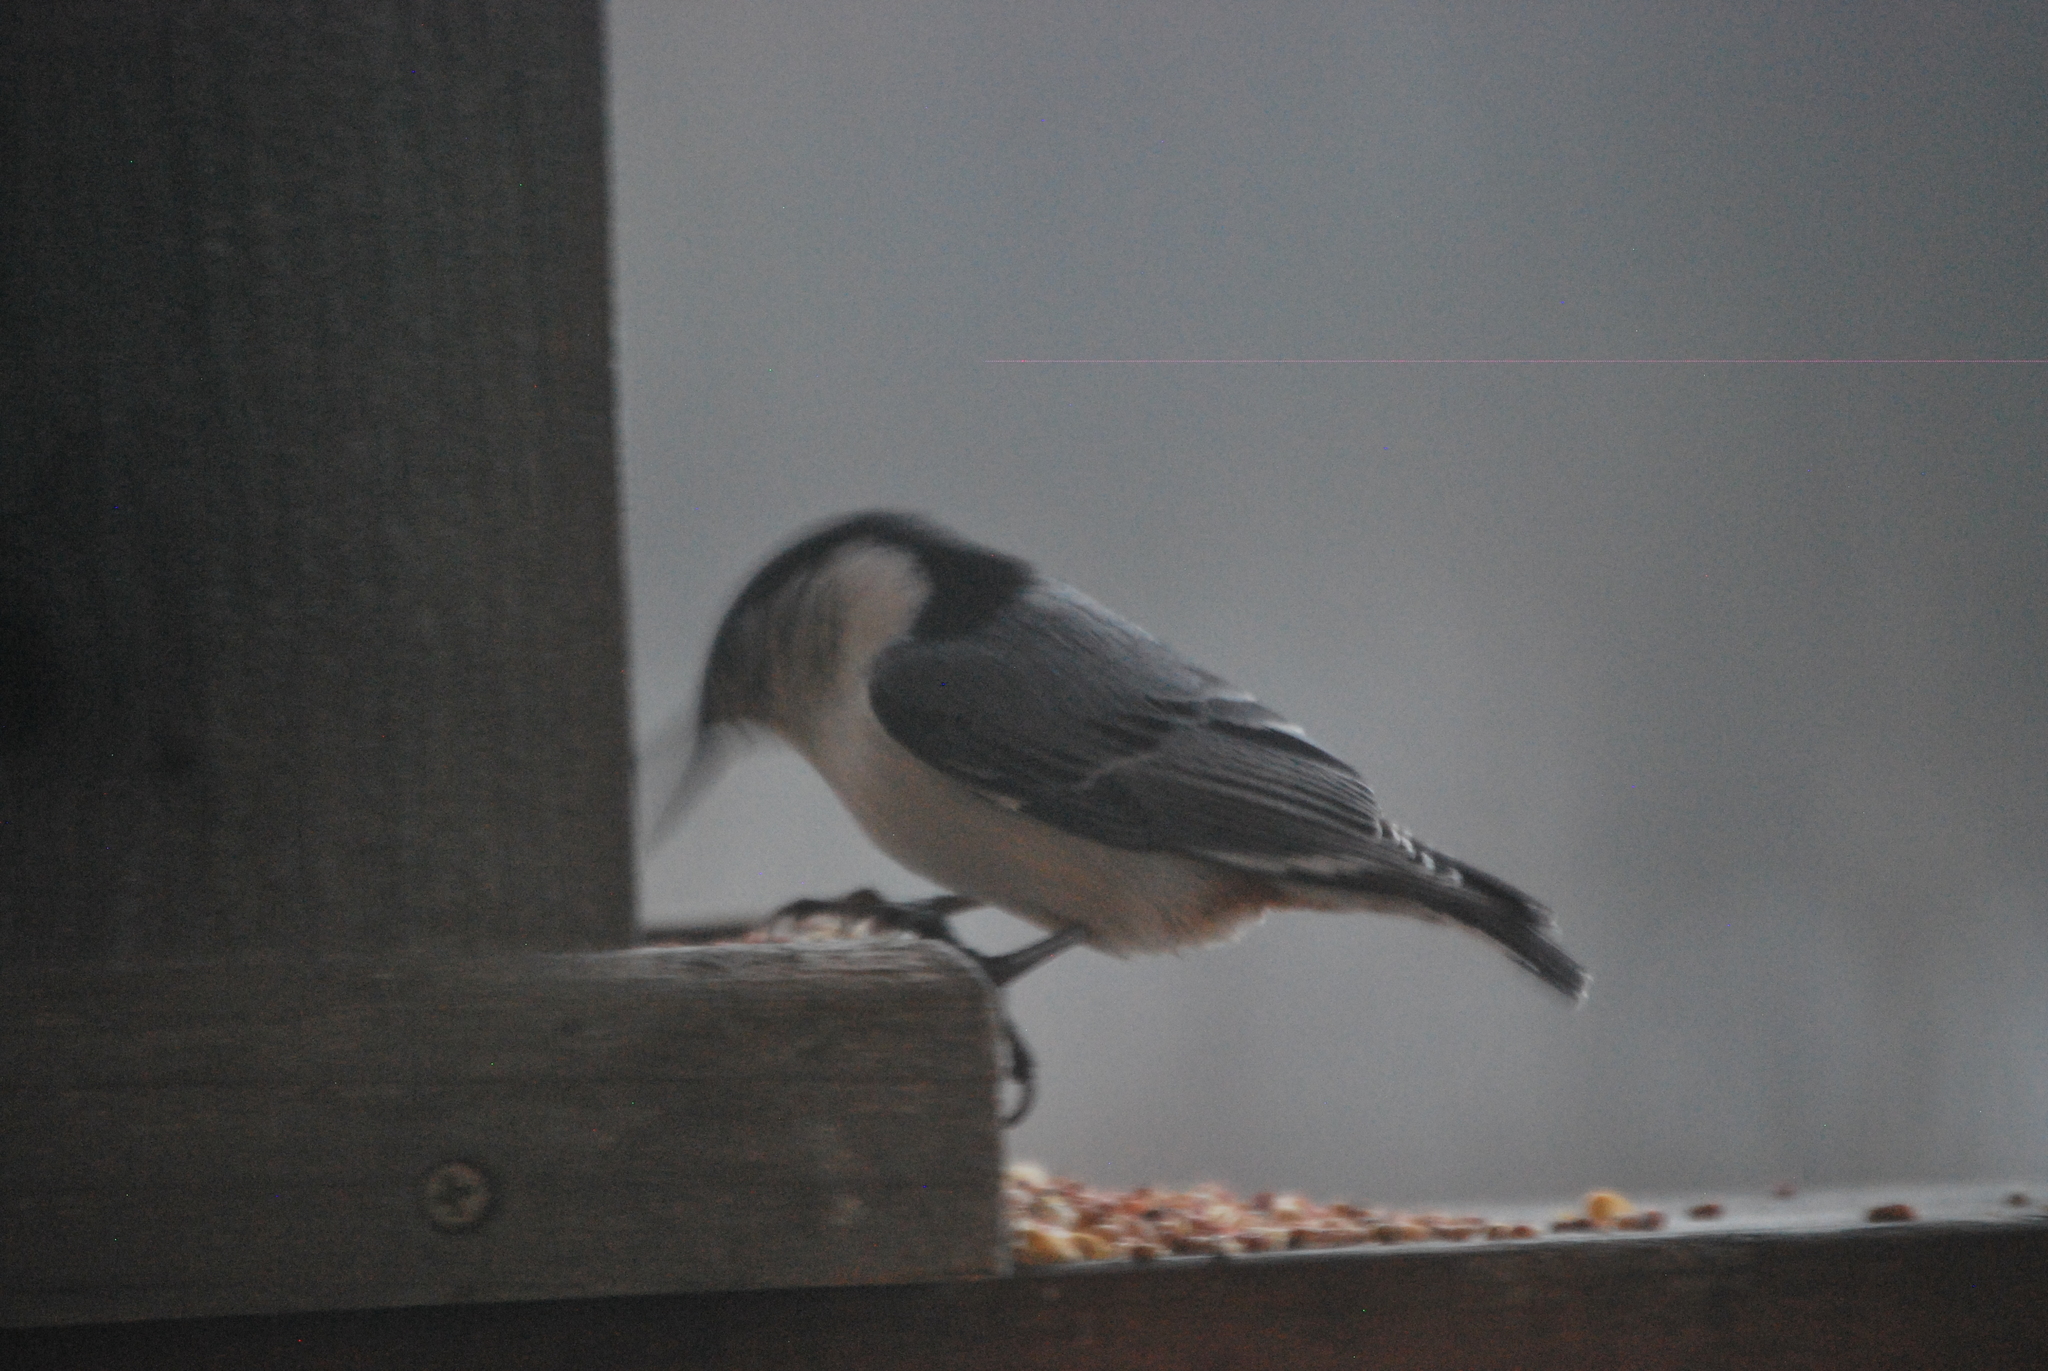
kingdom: Animalia
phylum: Chordata
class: Aves
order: Passeriformes
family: Sittidae
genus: Sitta
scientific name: Sitta carolinensis
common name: White-breasted nuthatch
